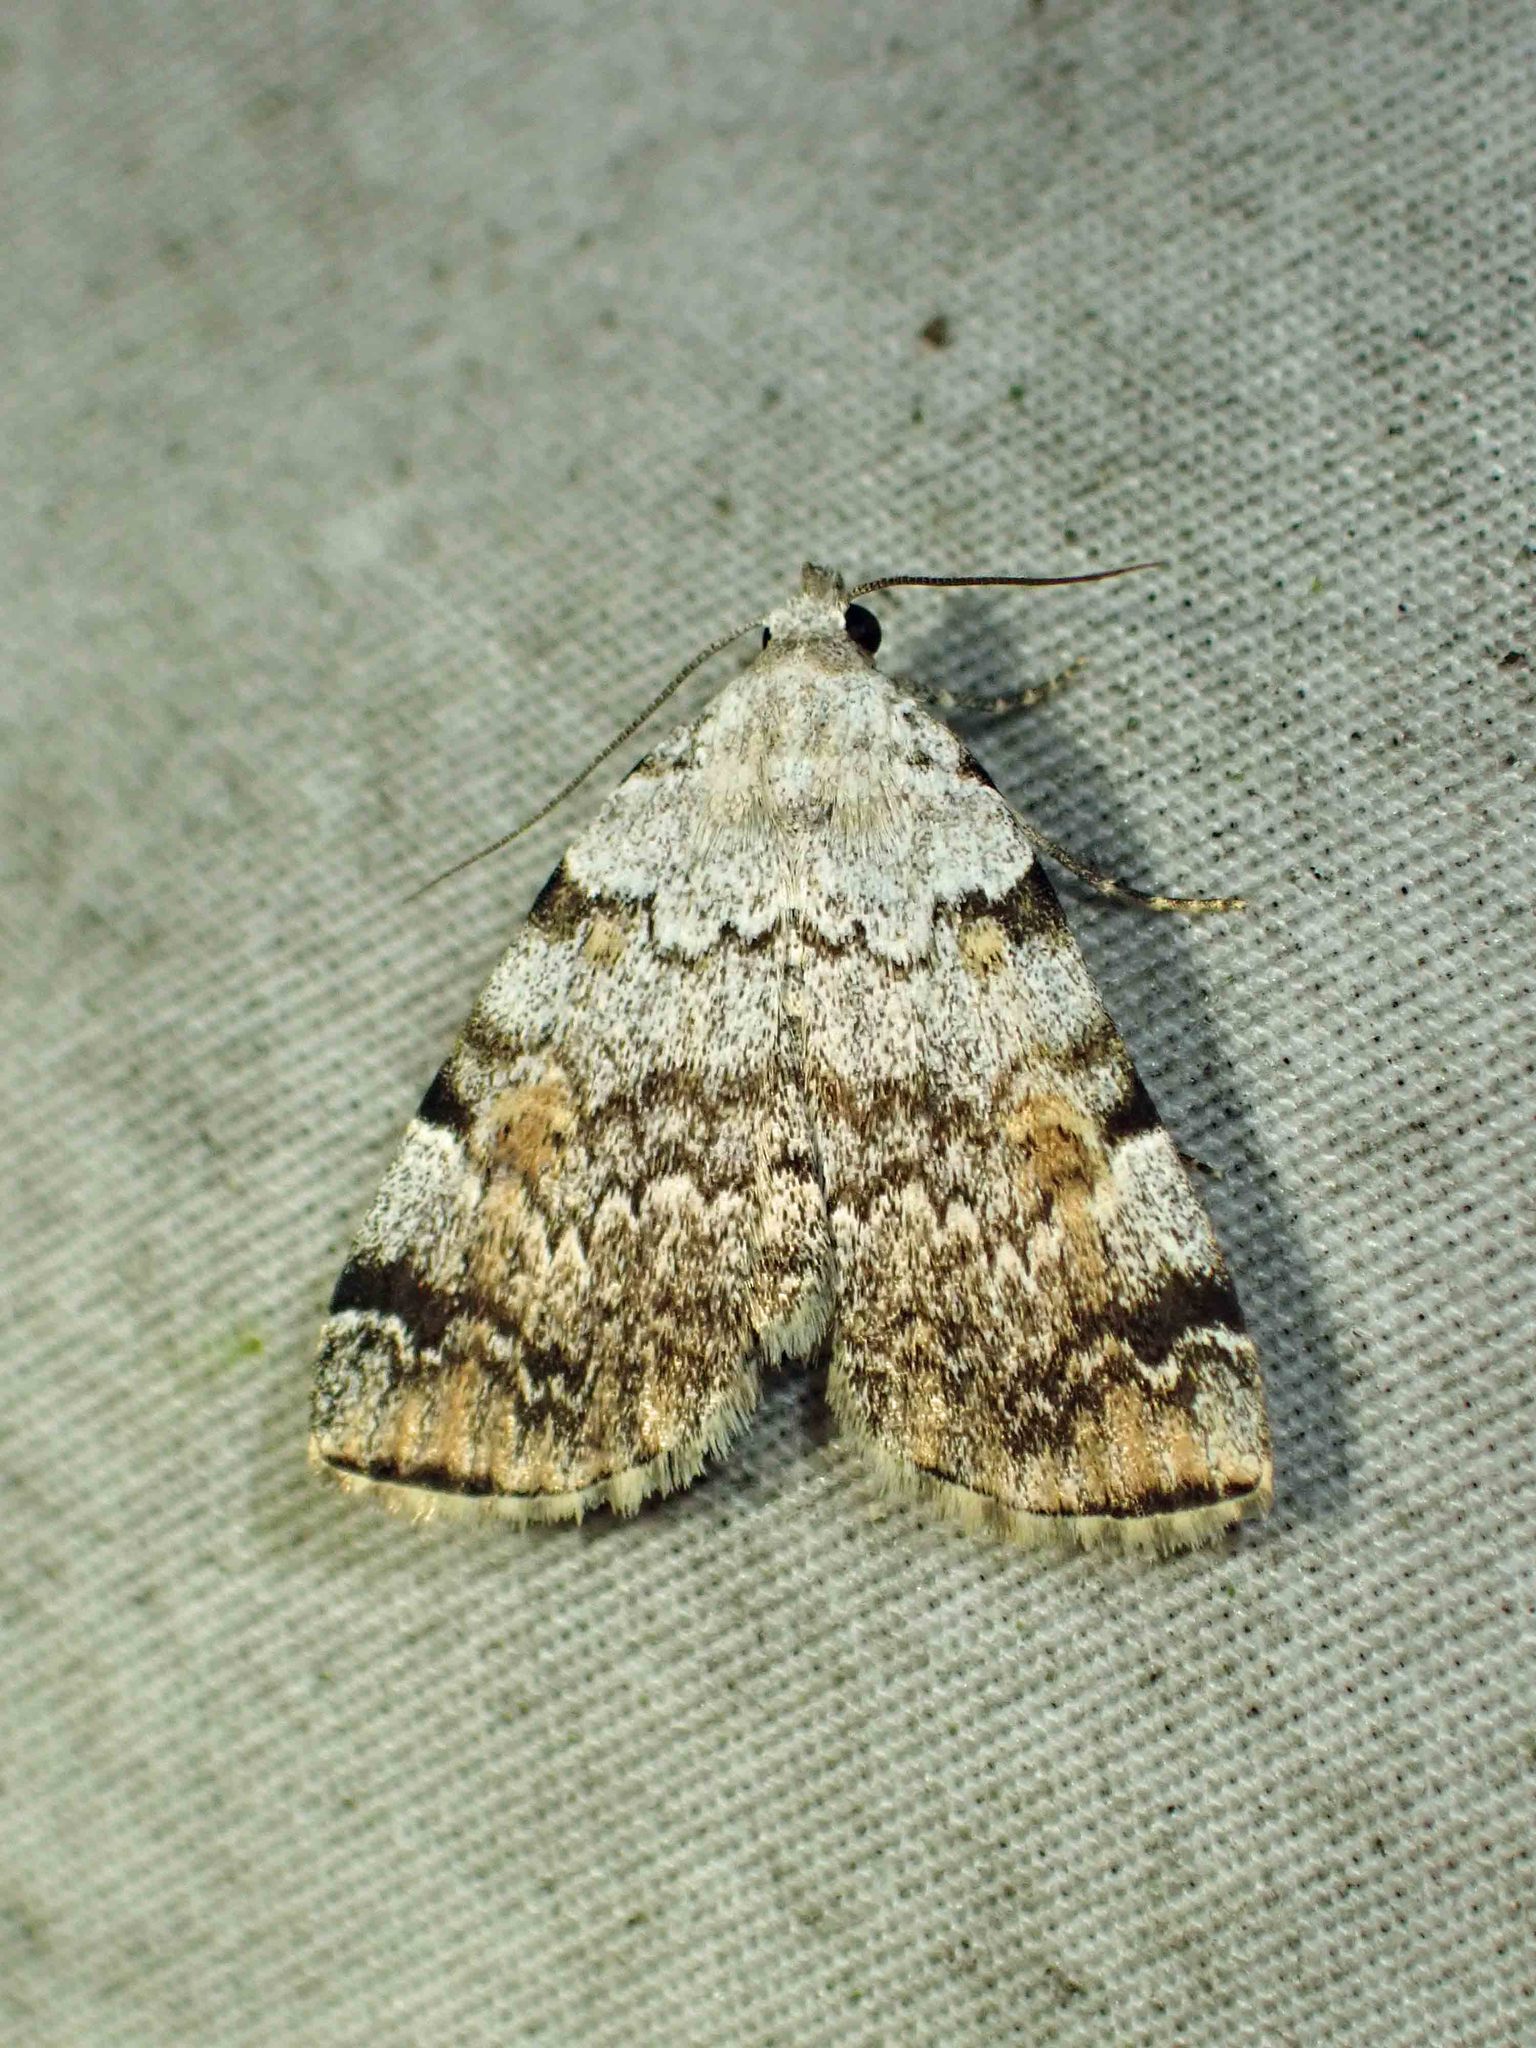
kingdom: Animalia
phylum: Arthropoda
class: Insecta
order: Lepidoptera
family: Erebidae
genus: Idia
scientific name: Idia americalis
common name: American idia moth
